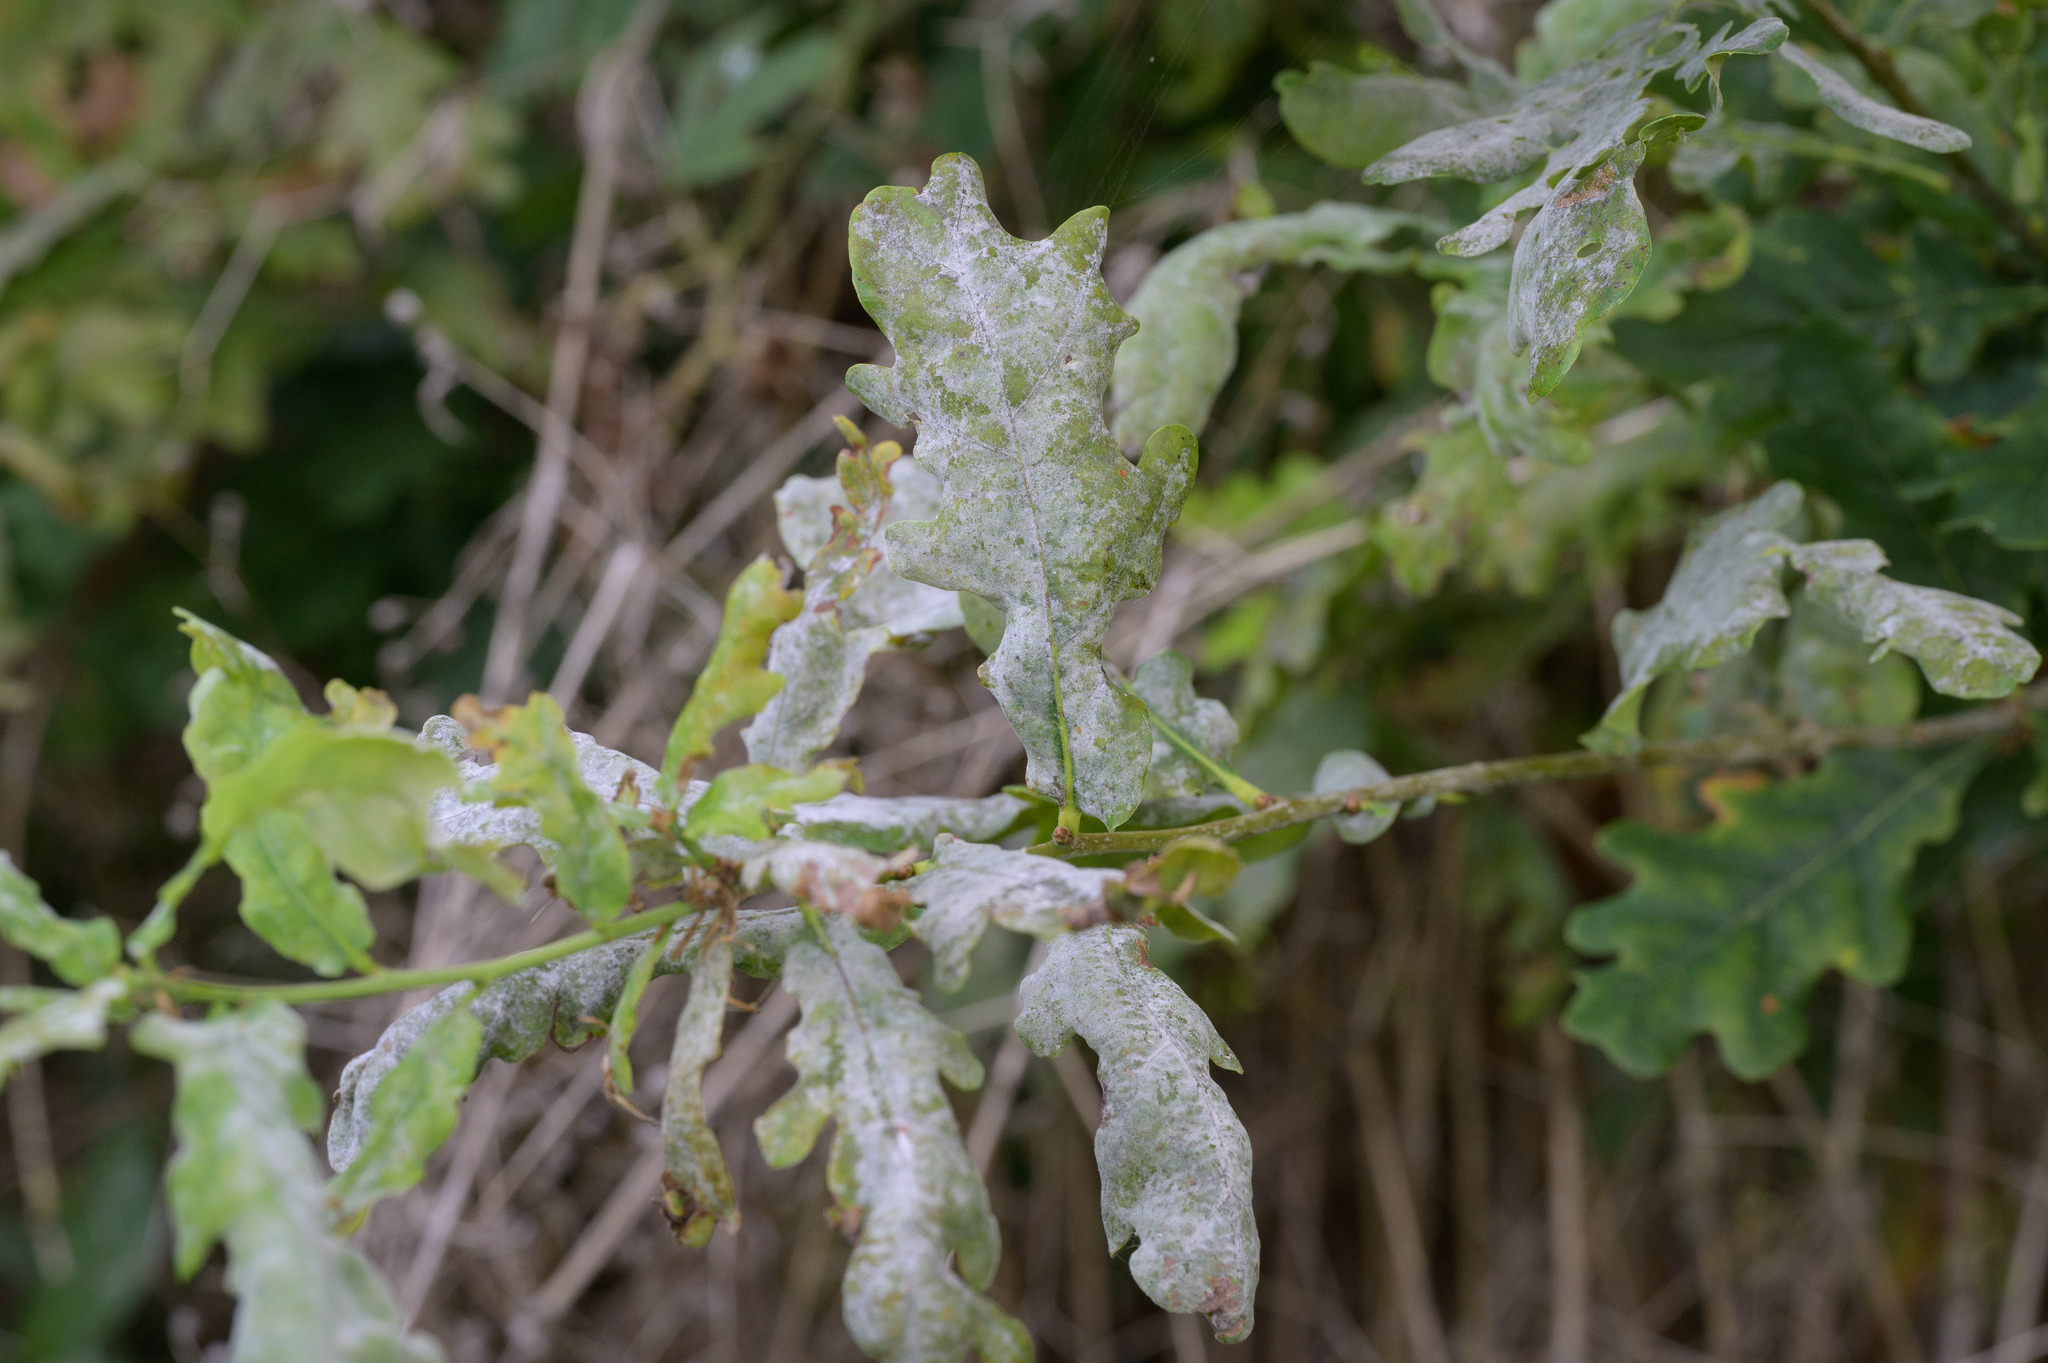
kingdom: Fungi
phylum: Ascomycota
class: Leotiomycetes
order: Helotiales
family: Erysiphaceae
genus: Erysiphe
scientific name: Erysiphe alphitoides
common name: Oak mildew
